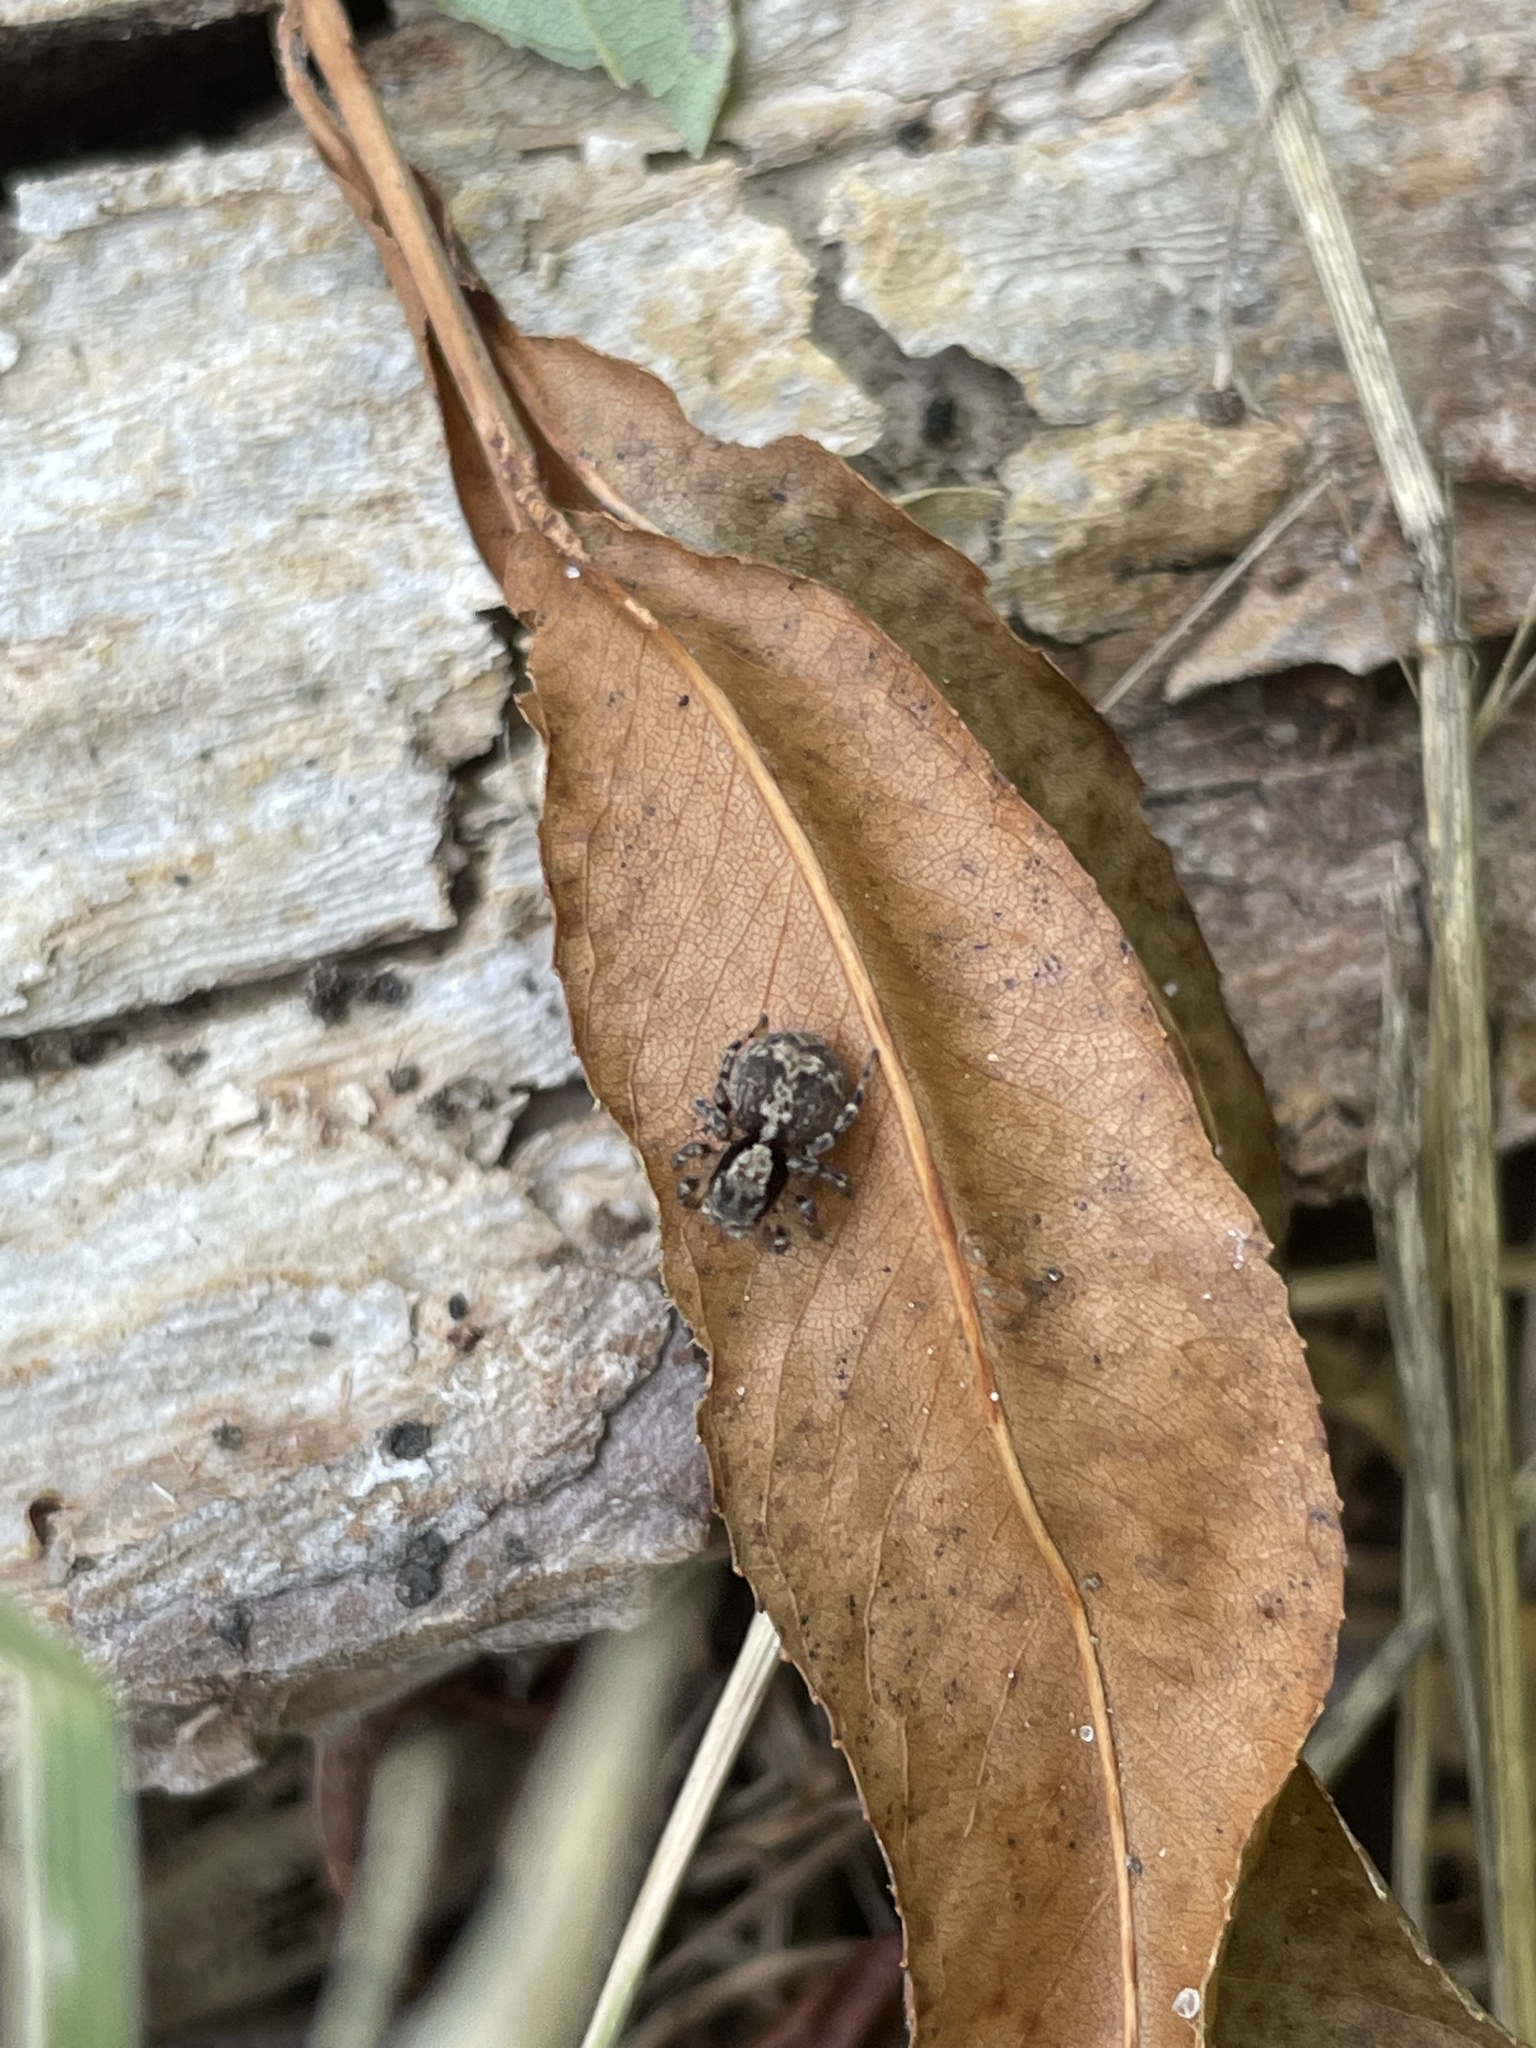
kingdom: Animalia
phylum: Arthropoda
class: Arachnida
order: Araneae
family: Salticidae
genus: Naphrys
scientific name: Naphrys pulex
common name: Flea jumping spider
